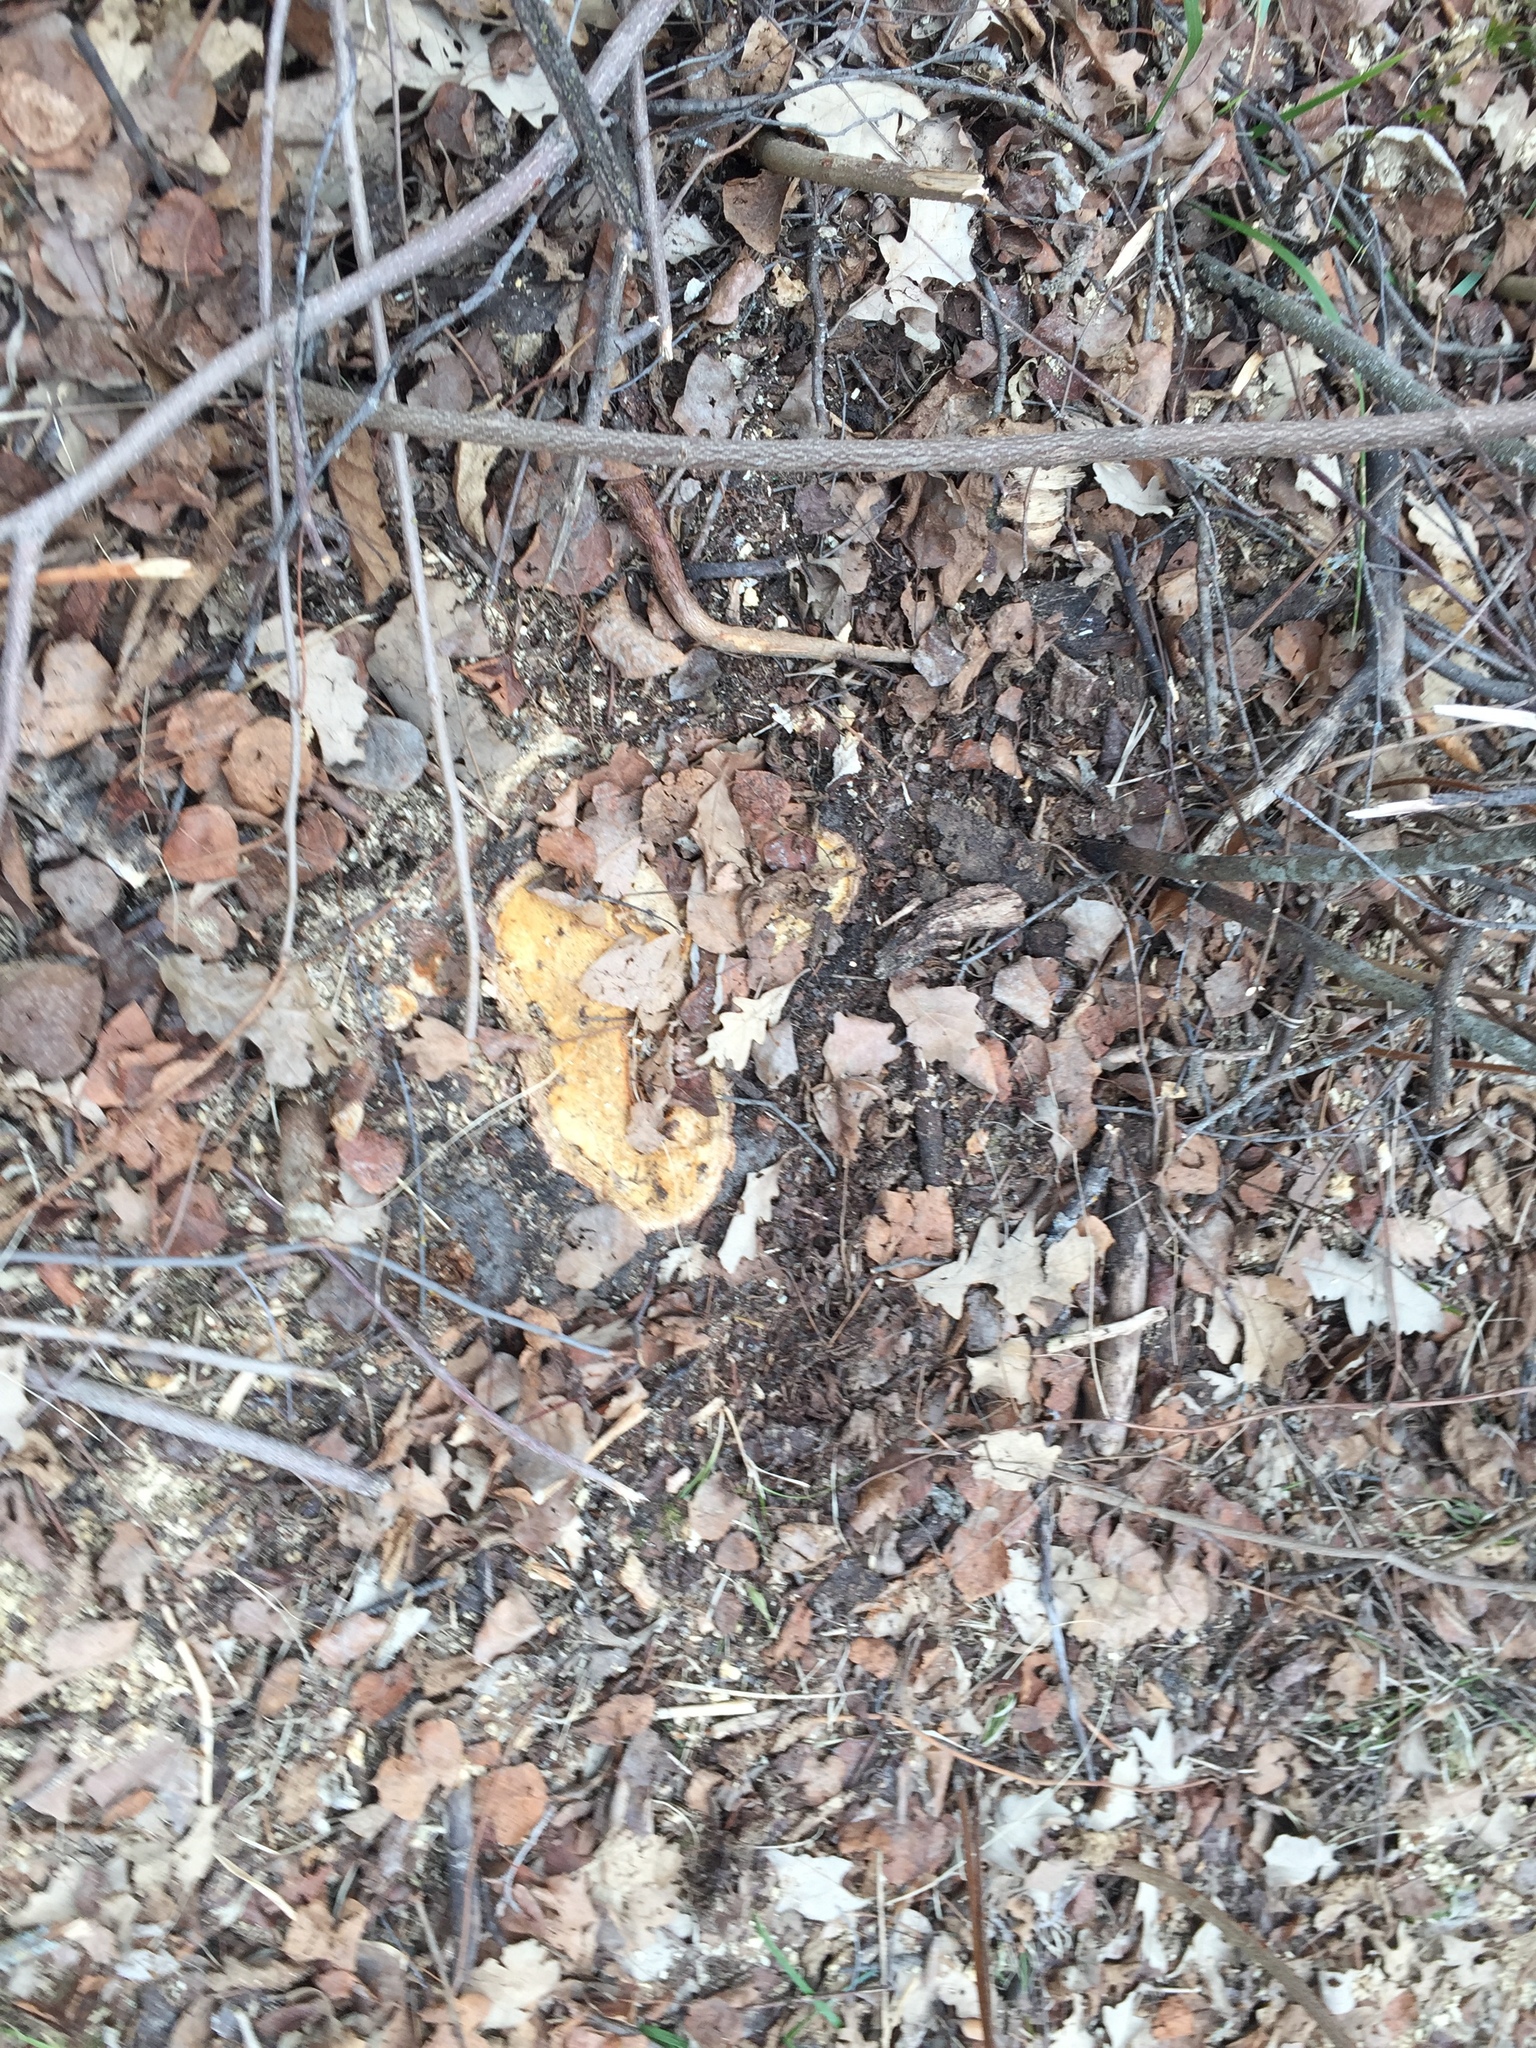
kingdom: Plantae
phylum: Tracheophyta
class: Magnoliopsida
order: Fagales
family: Fagaceae
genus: Quercus
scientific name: Quercus macrocarpa
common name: Bur oak
